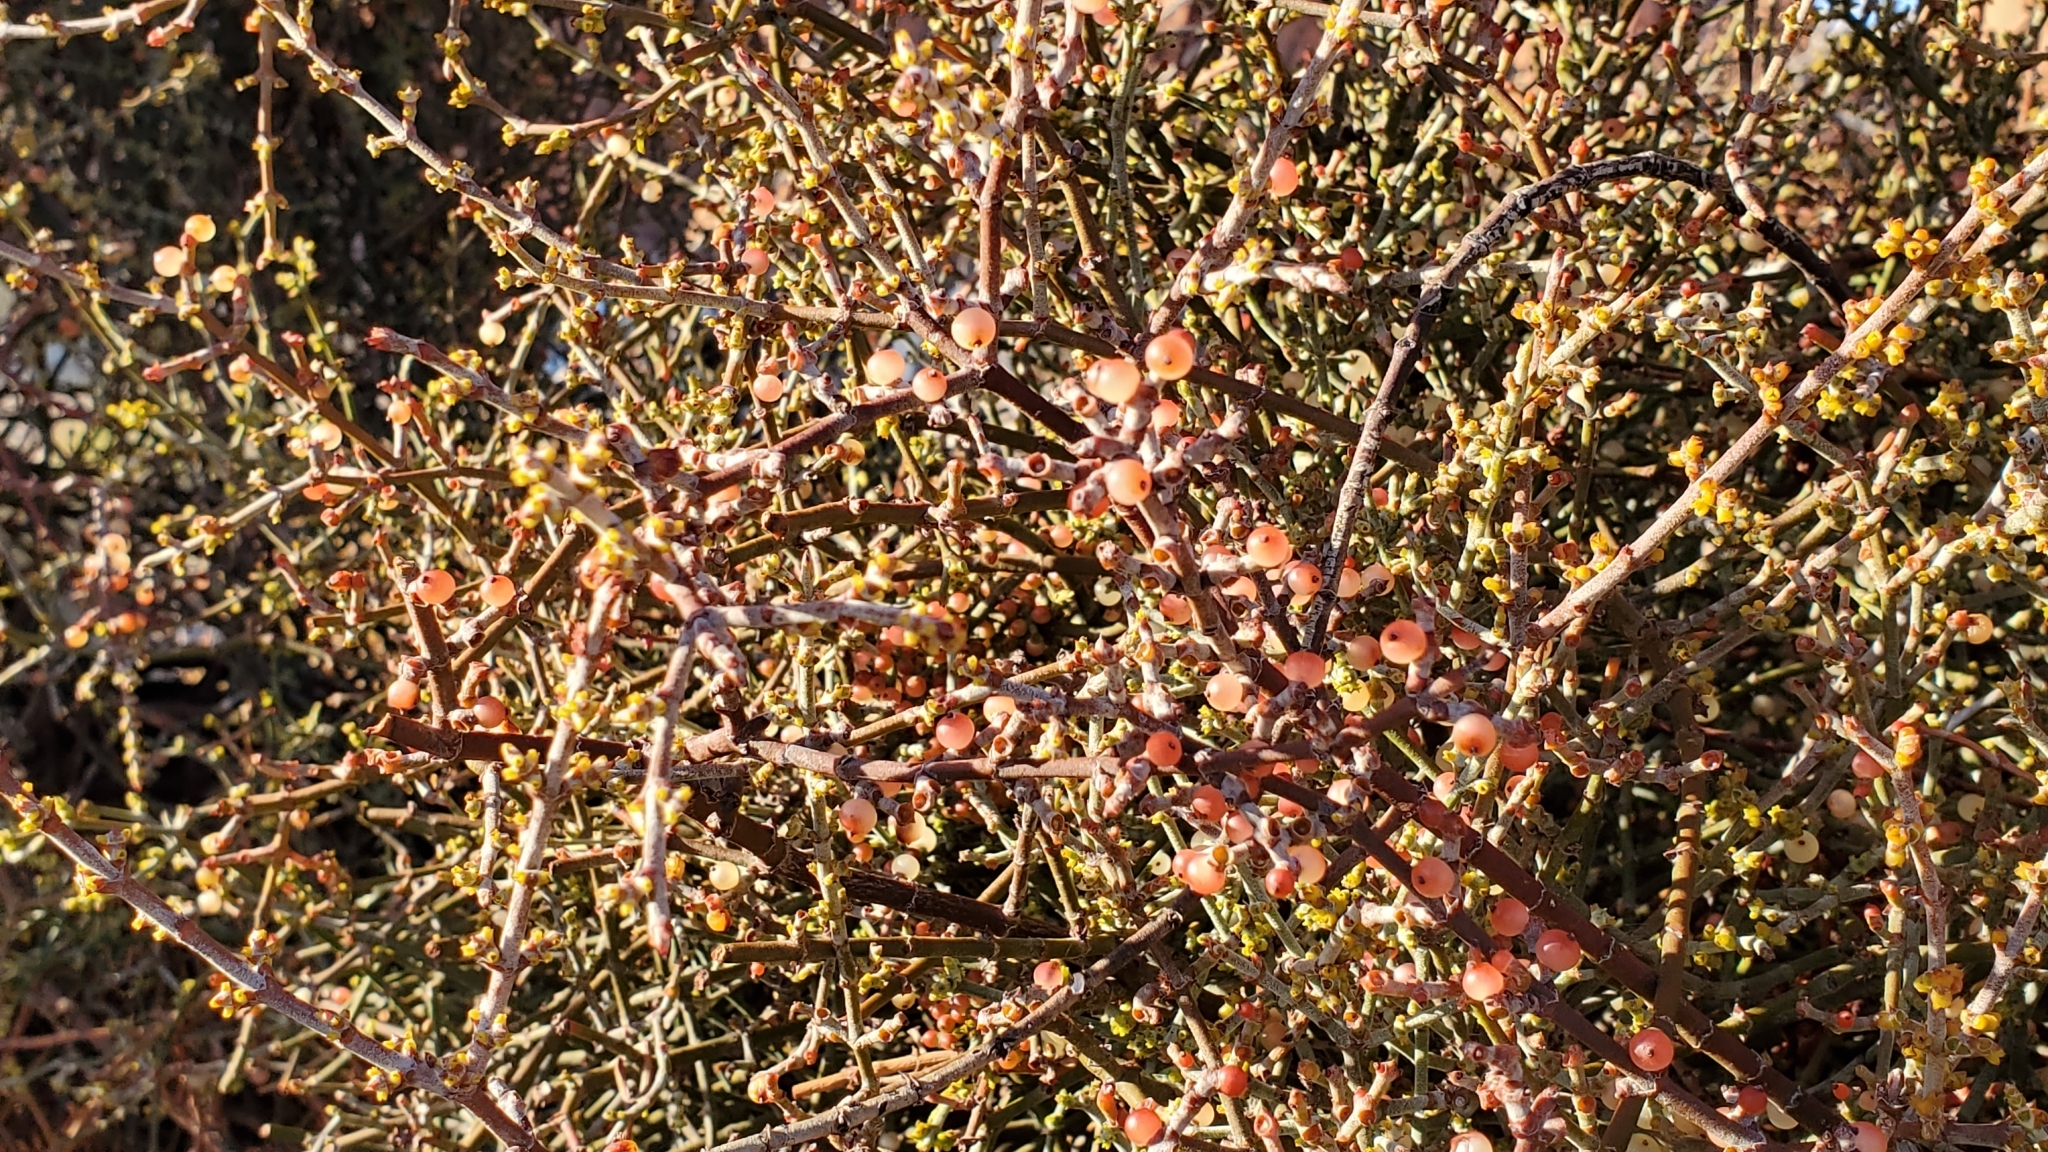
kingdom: Plantae
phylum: Tracheophyta
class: Magnoliopsida
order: Santalales
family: Viscaceae
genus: Phoradendron
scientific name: Phoradendron californicum
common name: Acacia mistletoe
